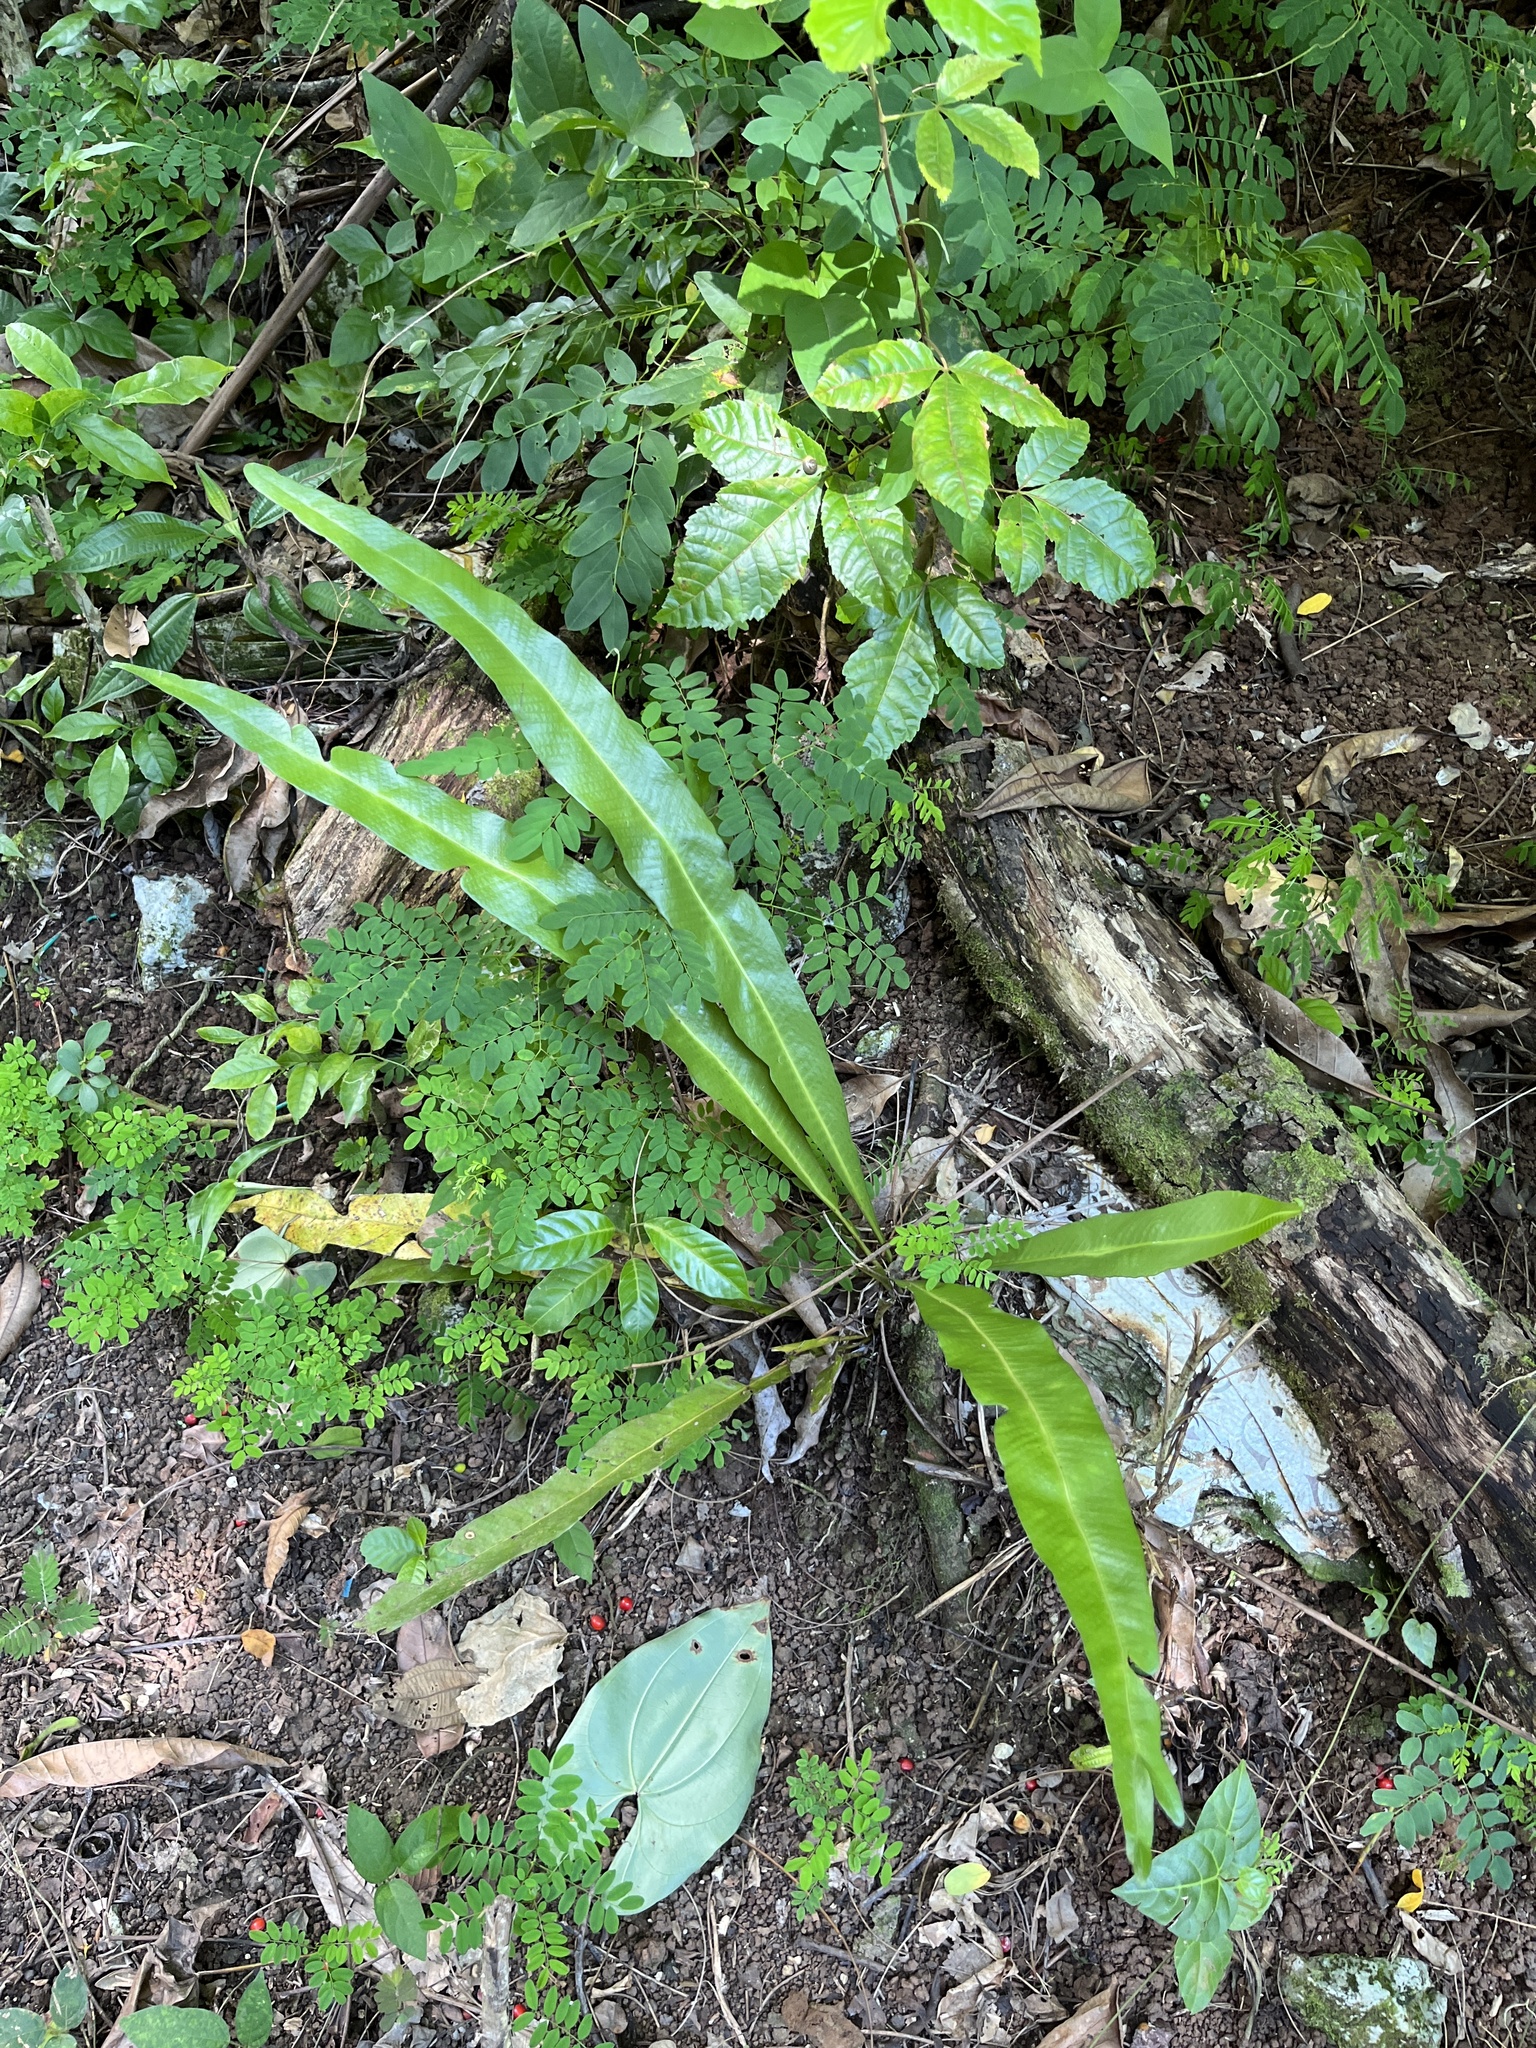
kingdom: Plantae
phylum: Tracheophyta
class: Polypodiopsida
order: Polypodiales
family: Polypodiaceae
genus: Campyloneurum
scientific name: Campyloneurum phyllitidis
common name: Cow-tongue fern
